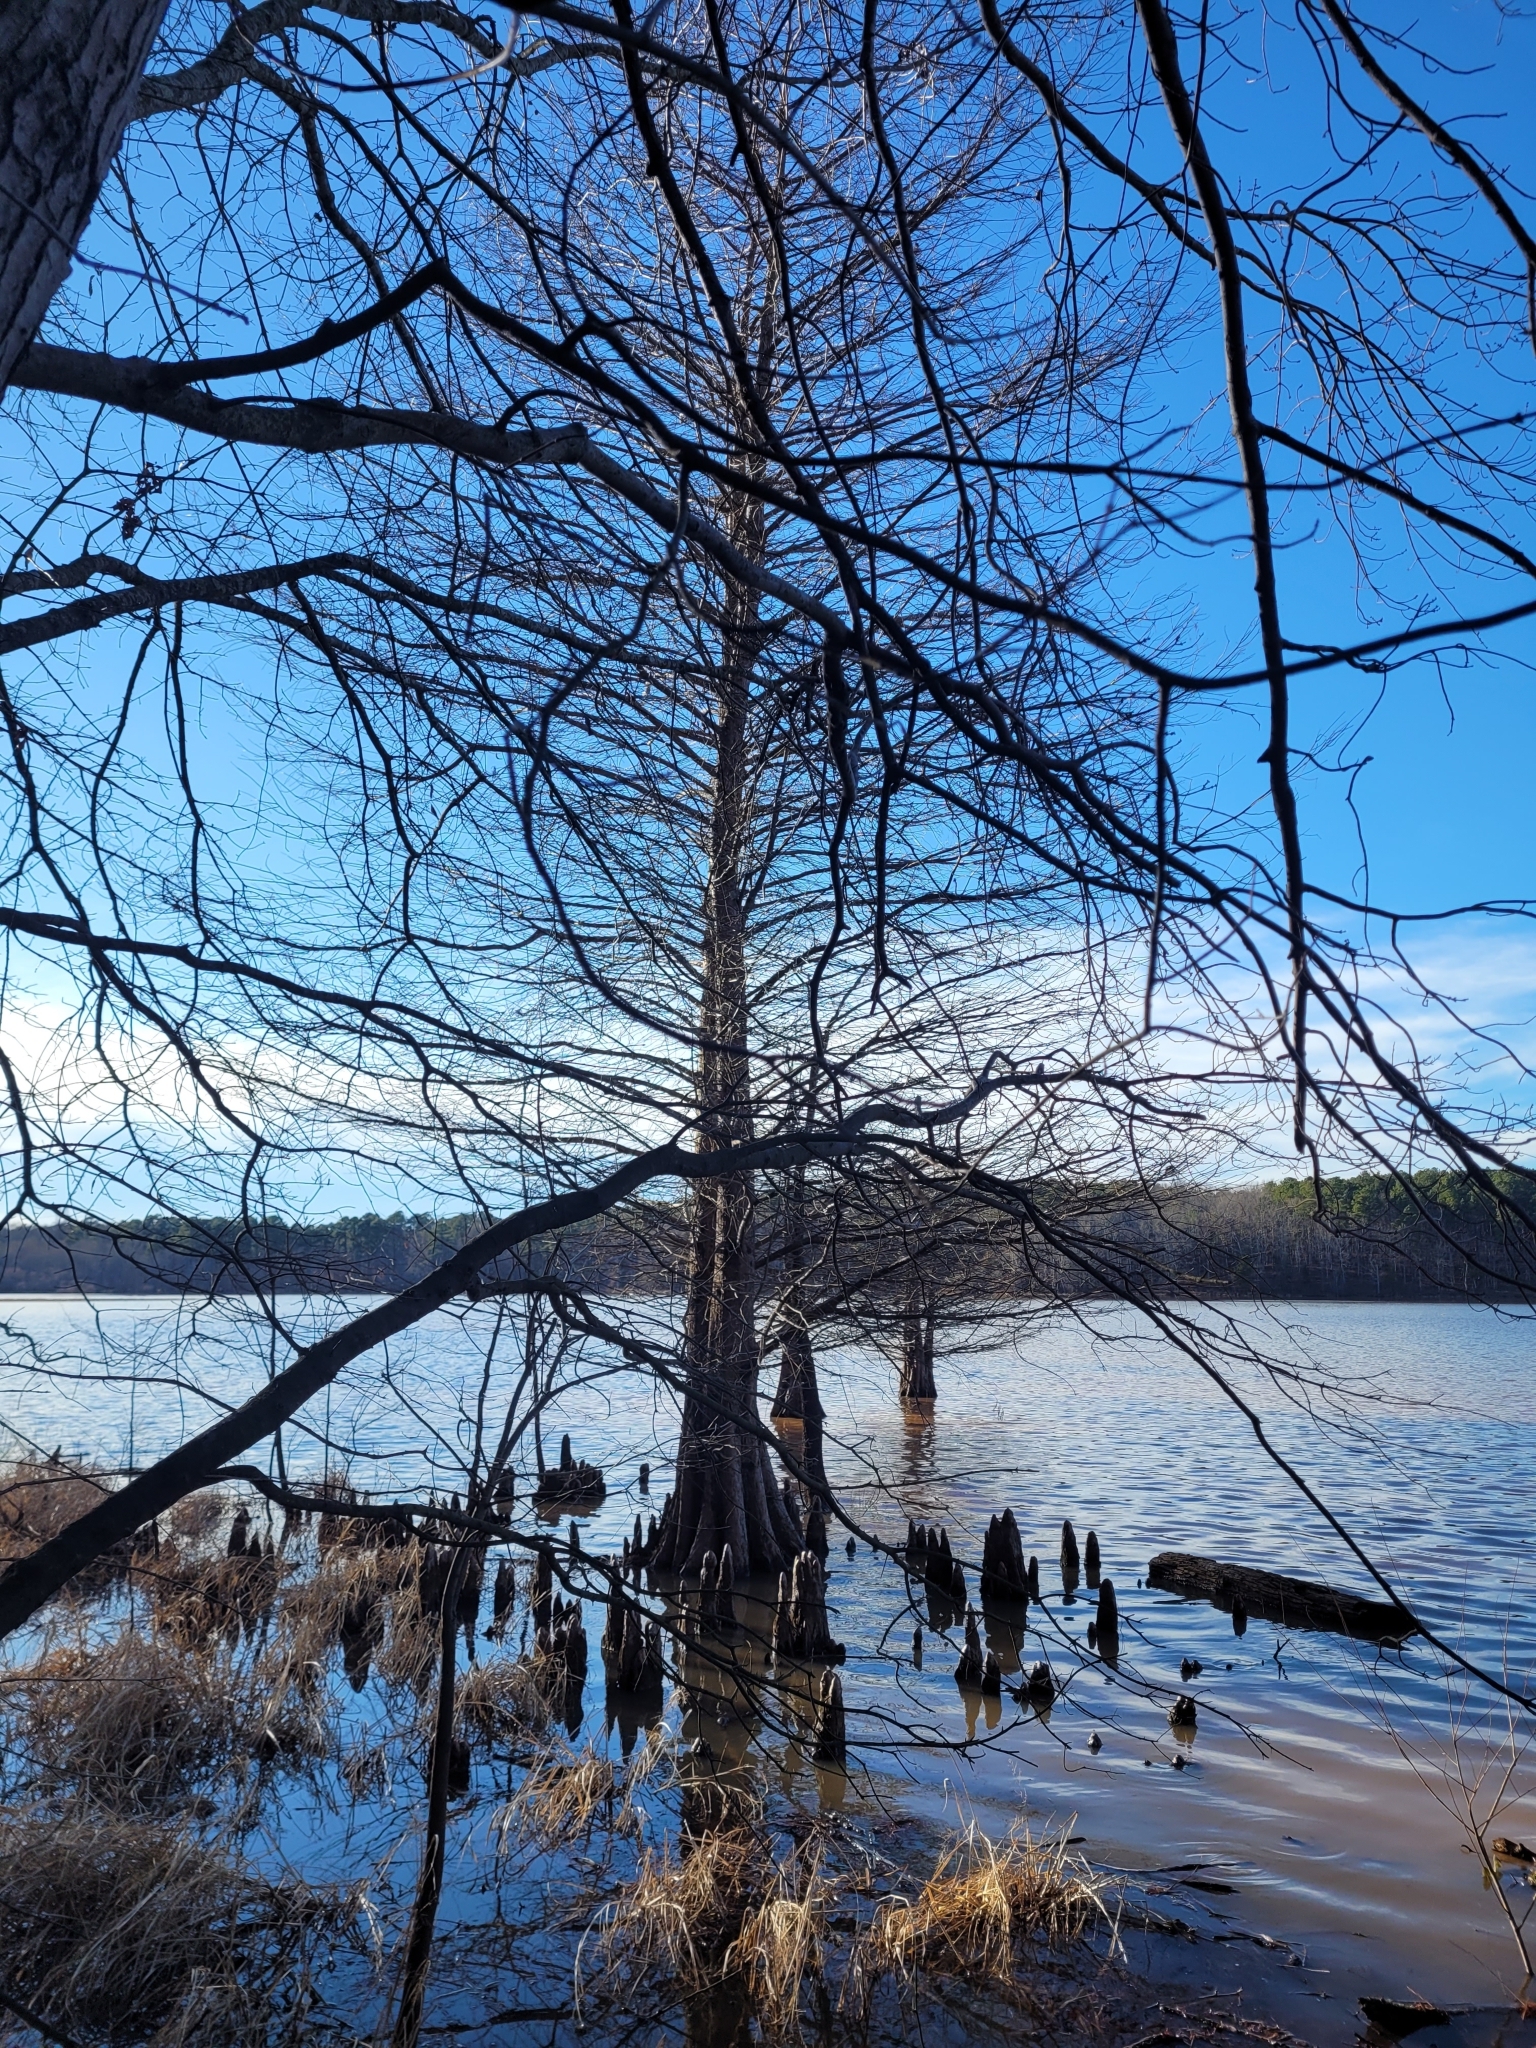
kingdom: Plantae
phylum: Tracheophyta
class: Pinopsida
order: Pinales
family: Cupressaceae
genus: Taxodium
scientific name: Taxodium distichum
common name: Bald cypress
